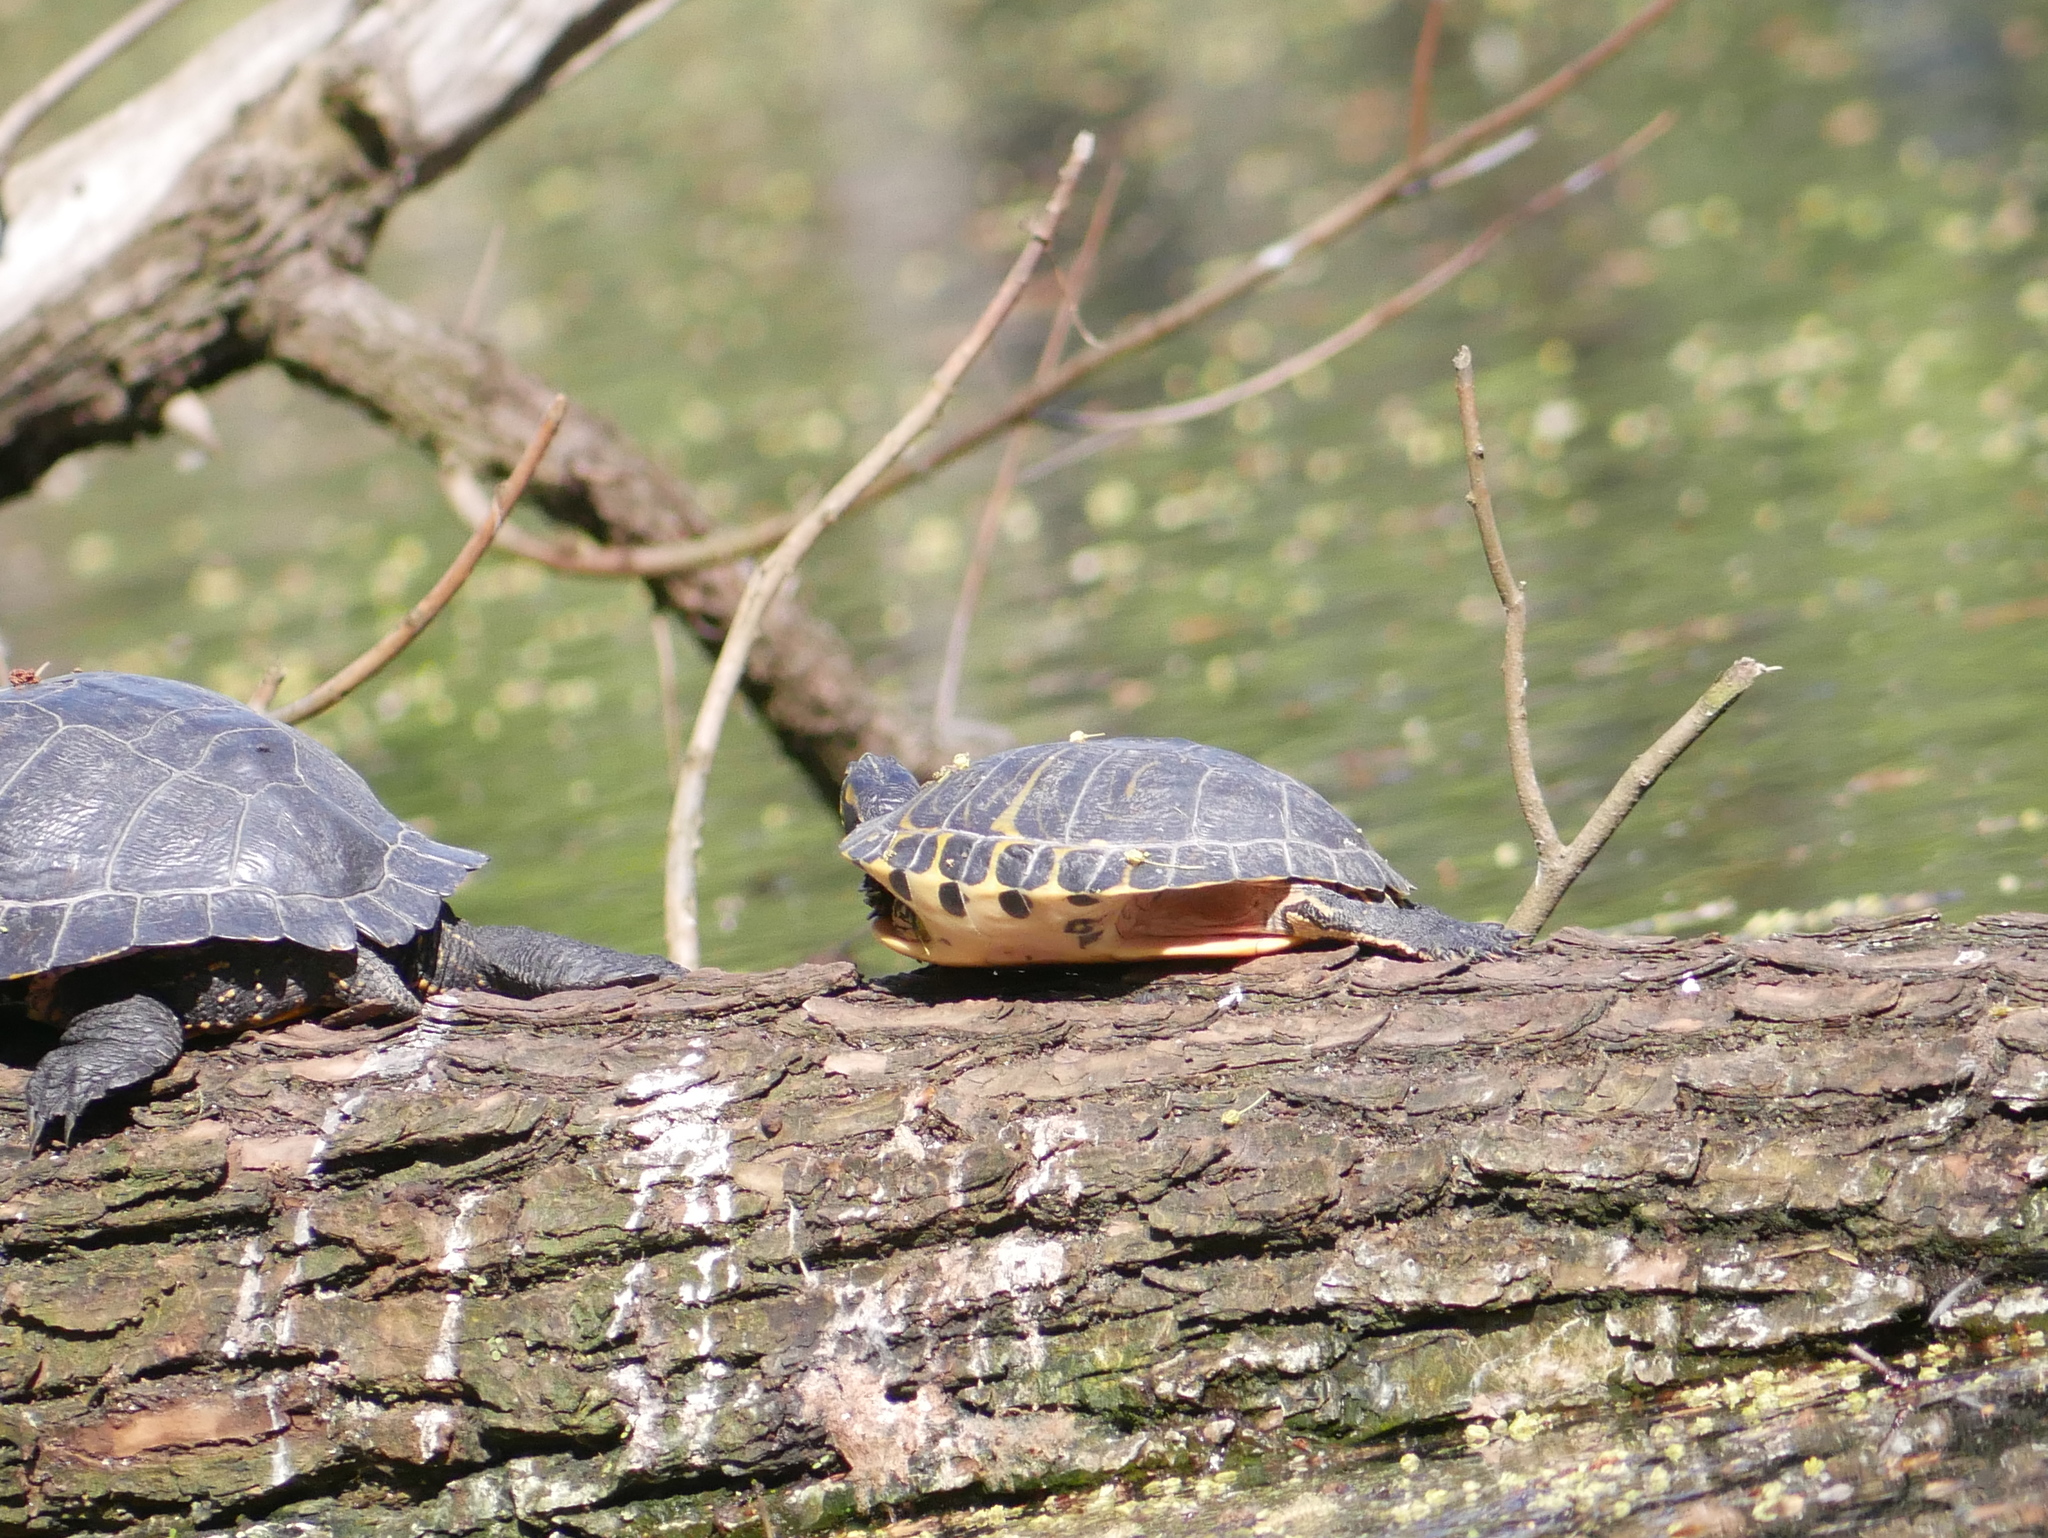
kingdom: Animalia
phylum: Chordata
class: Testudines
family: Emydidae
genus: Trachemys
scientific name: Trachemys scripta
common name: Slider
